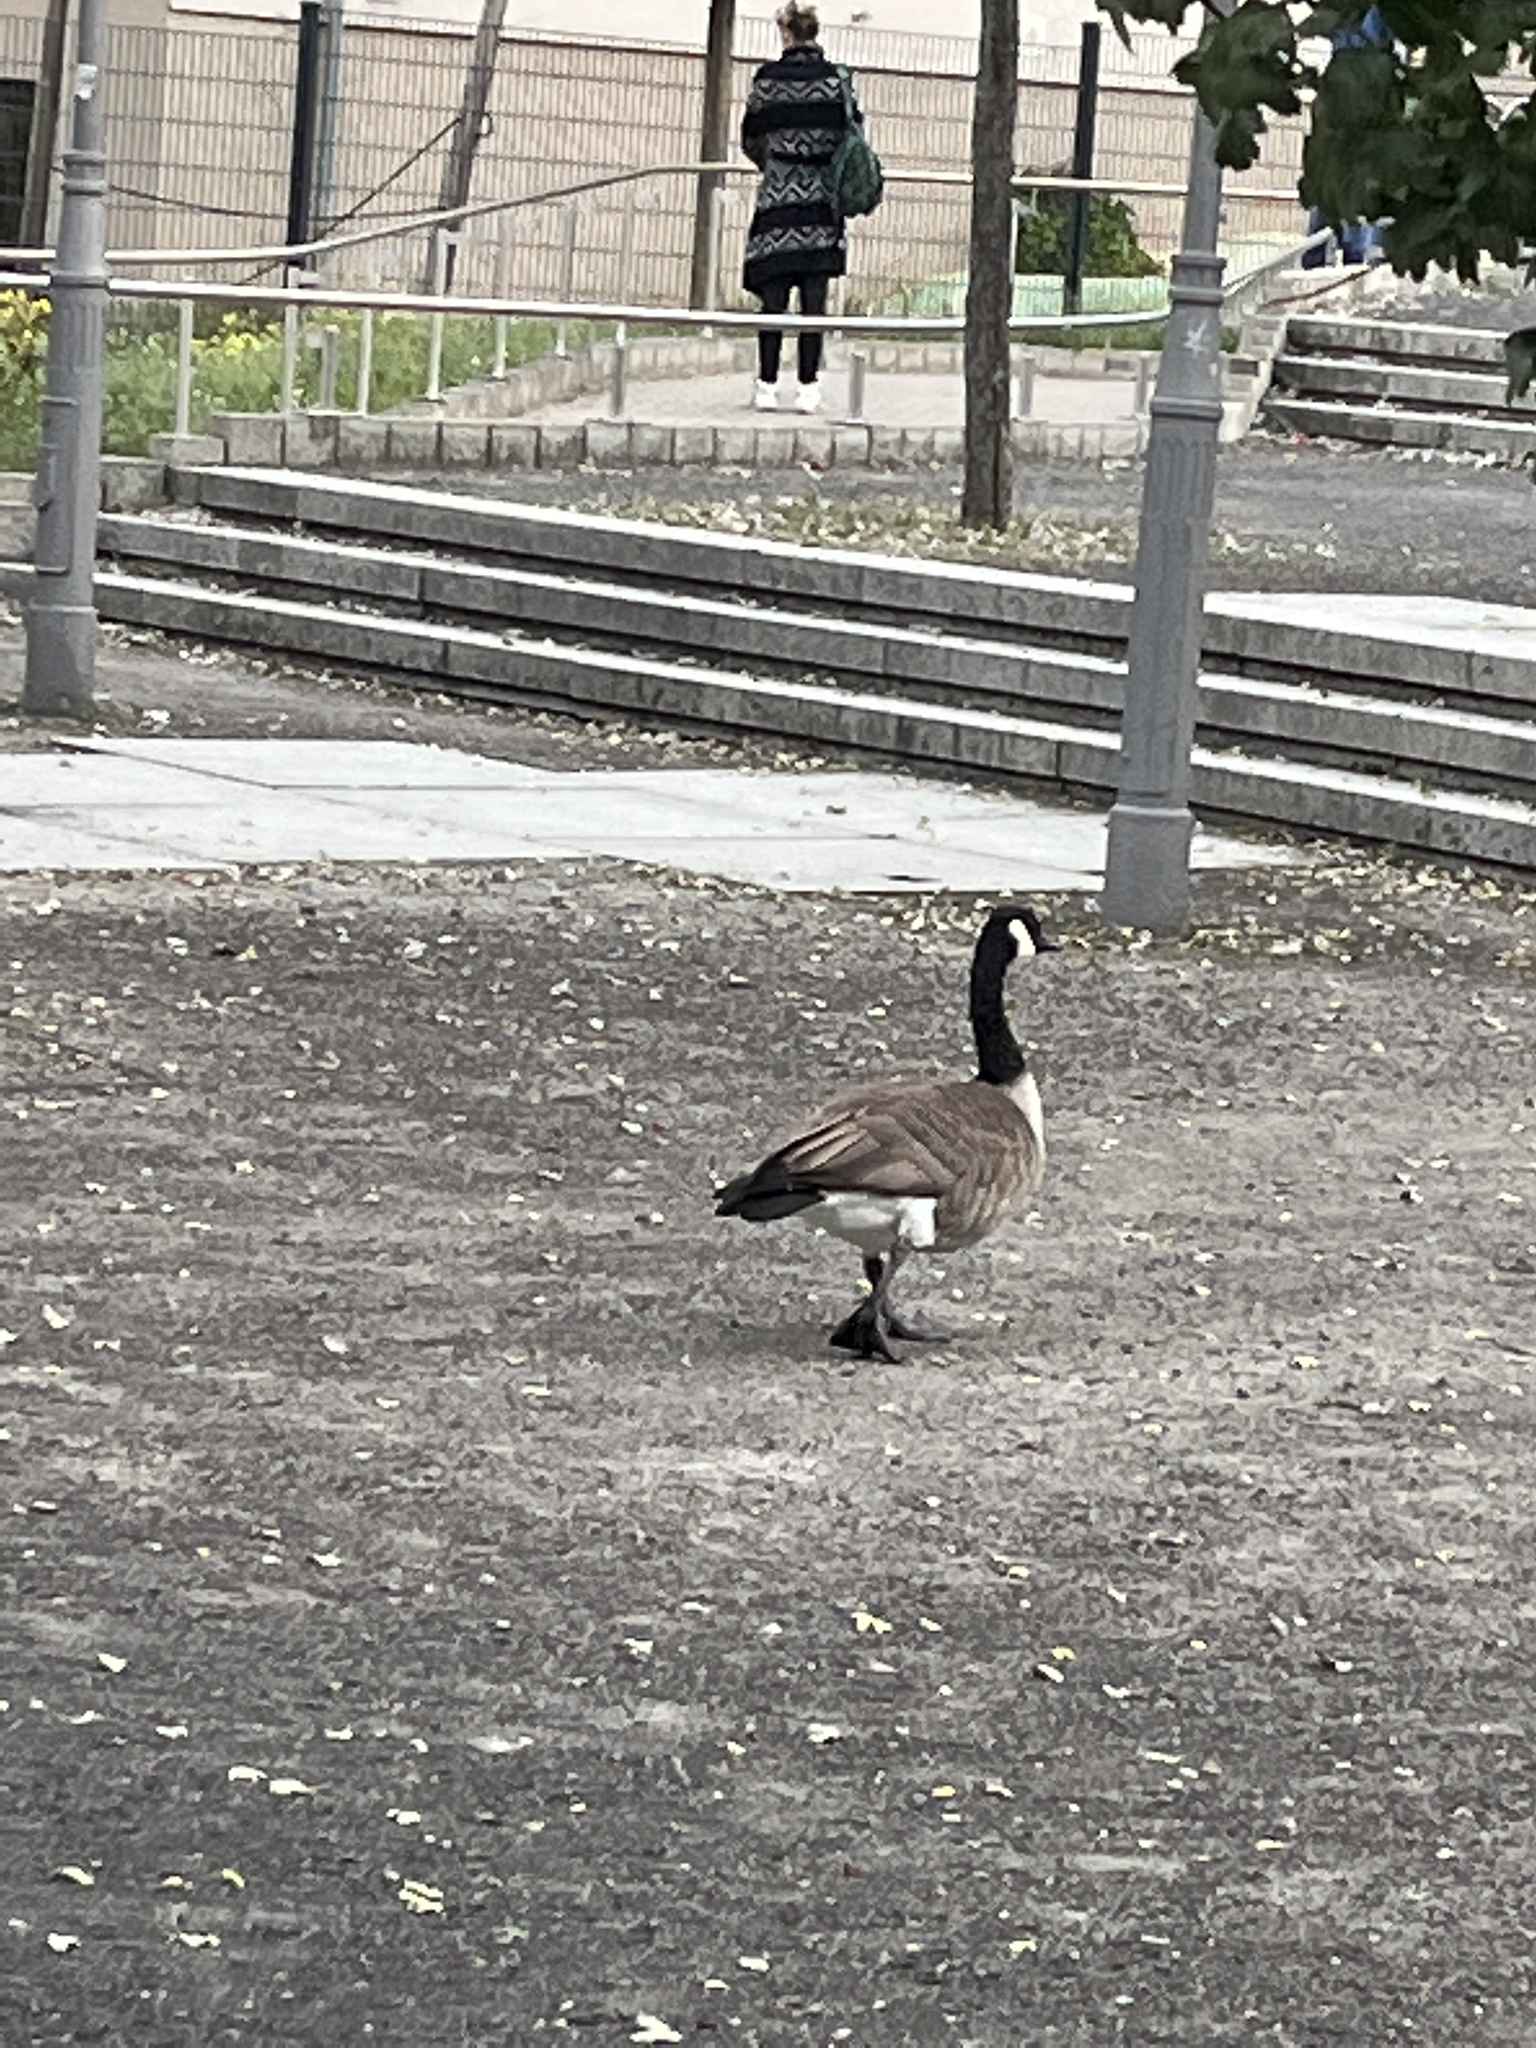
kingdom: Animalia
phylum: Chordata
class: Aves
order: Anseriformes
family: Anatidae
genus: Branta
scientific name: Branta canadensis
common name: Canada goose
